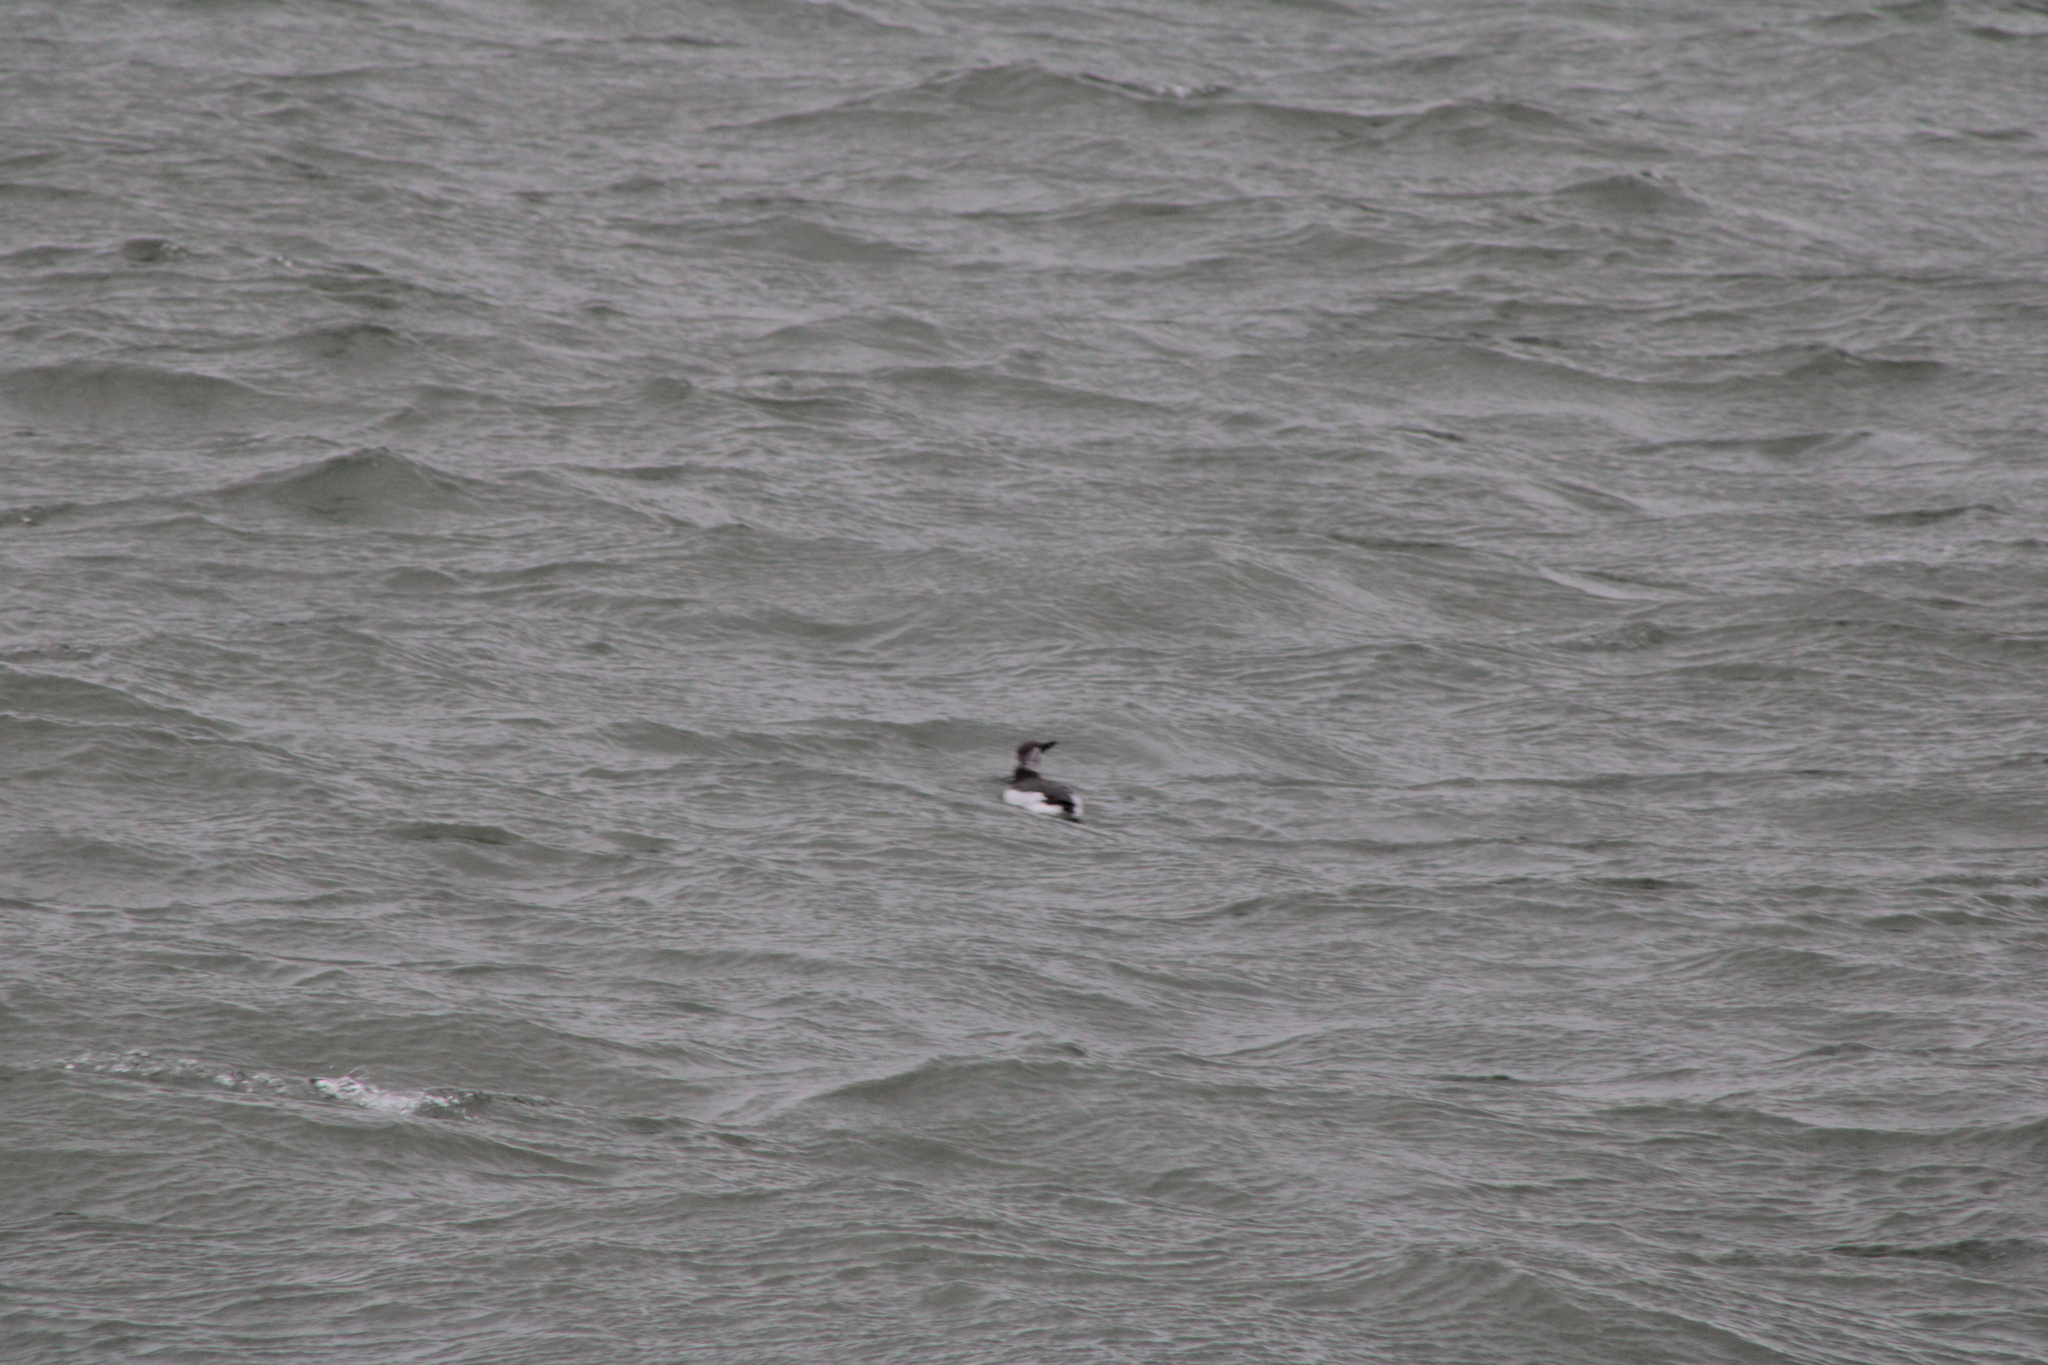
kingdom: Animalia
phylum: Chordata
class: Aves
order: Charadriiformes
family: Alcidae
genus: Uria
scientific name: Uria aalge
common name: Common murre
